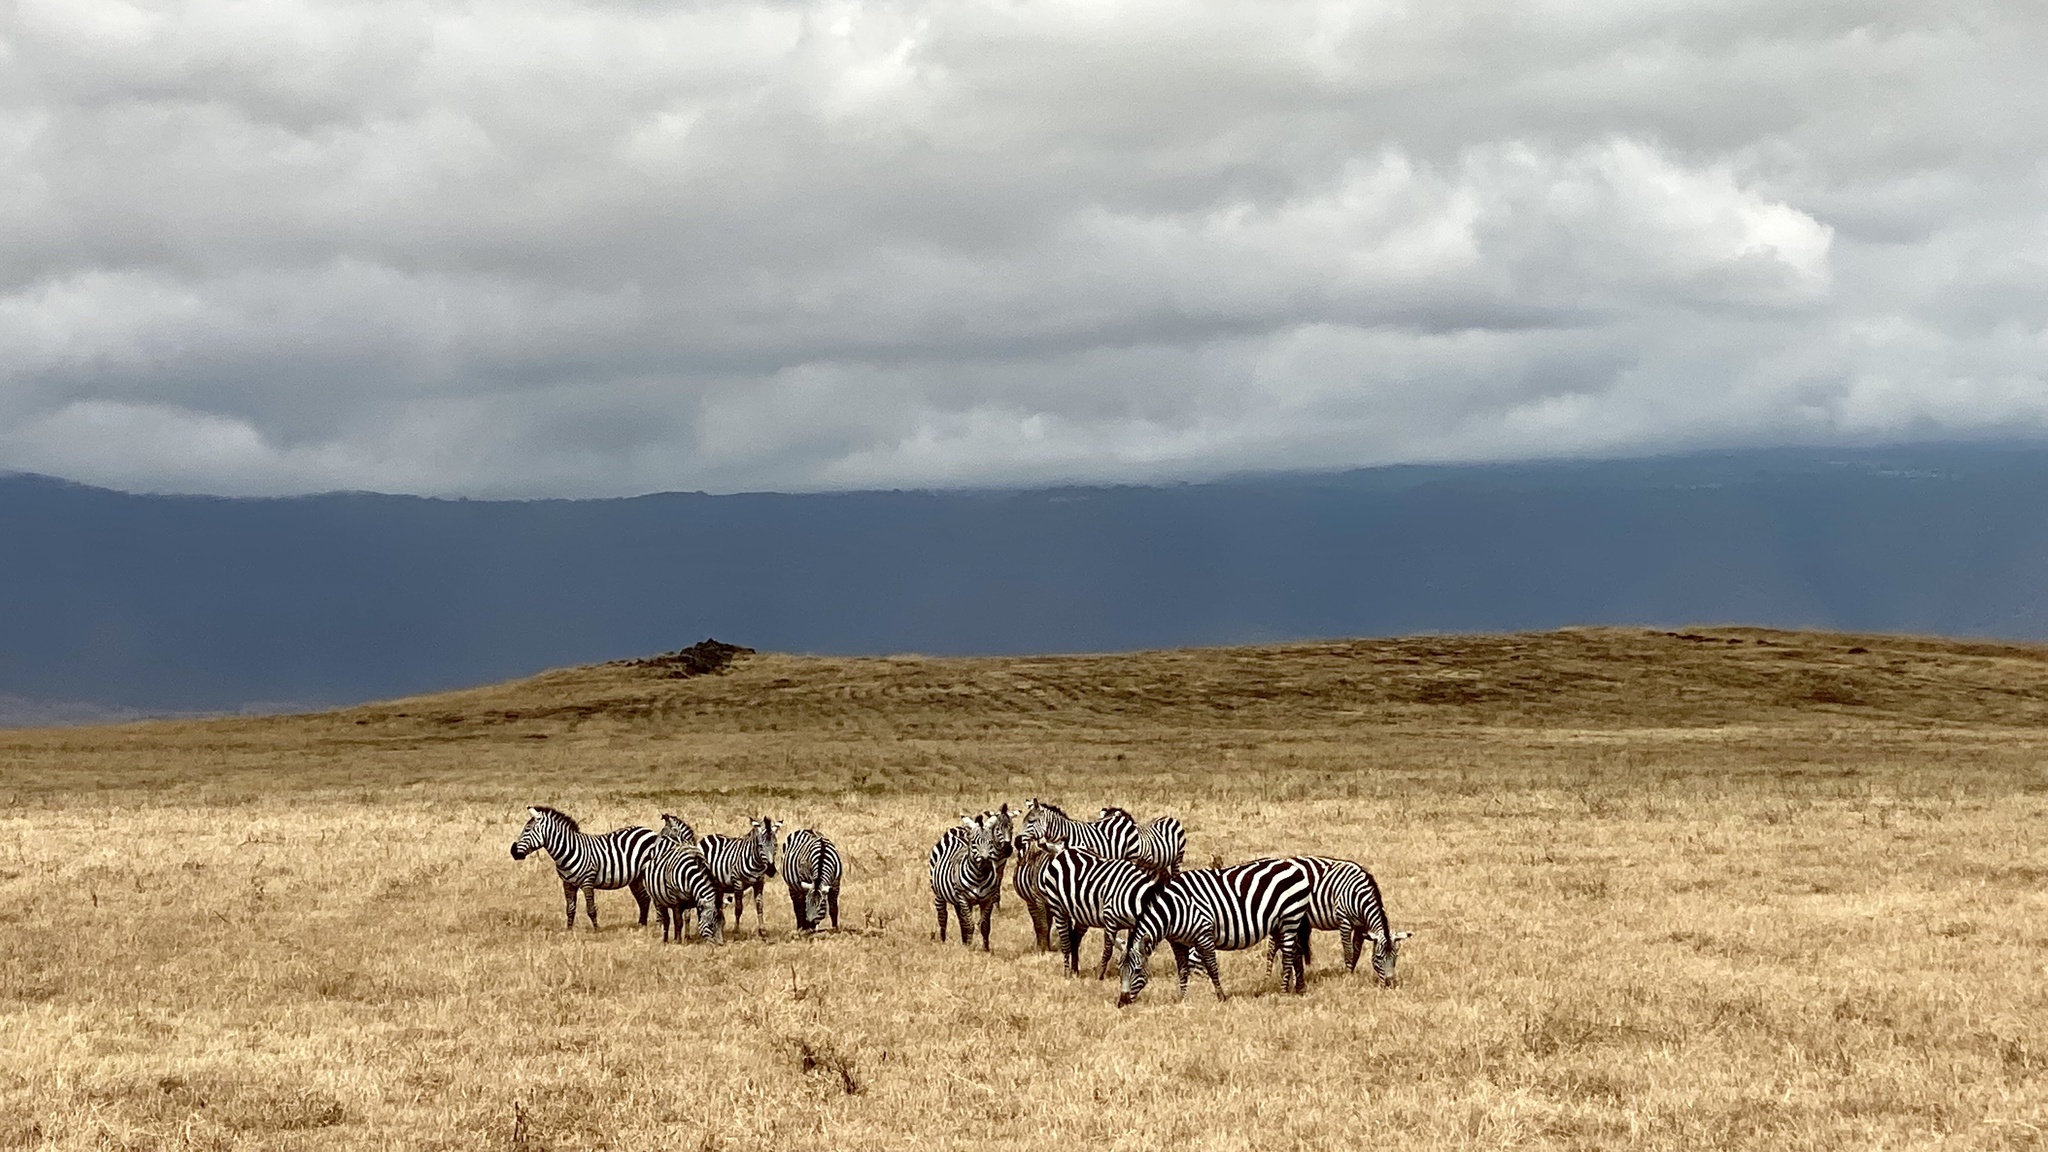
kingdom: Animalia
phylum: Chordata
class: Mammalia
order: Perissodactyla
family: Equidae
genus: Equus
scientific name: Equus quagga
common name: Plains zebra
